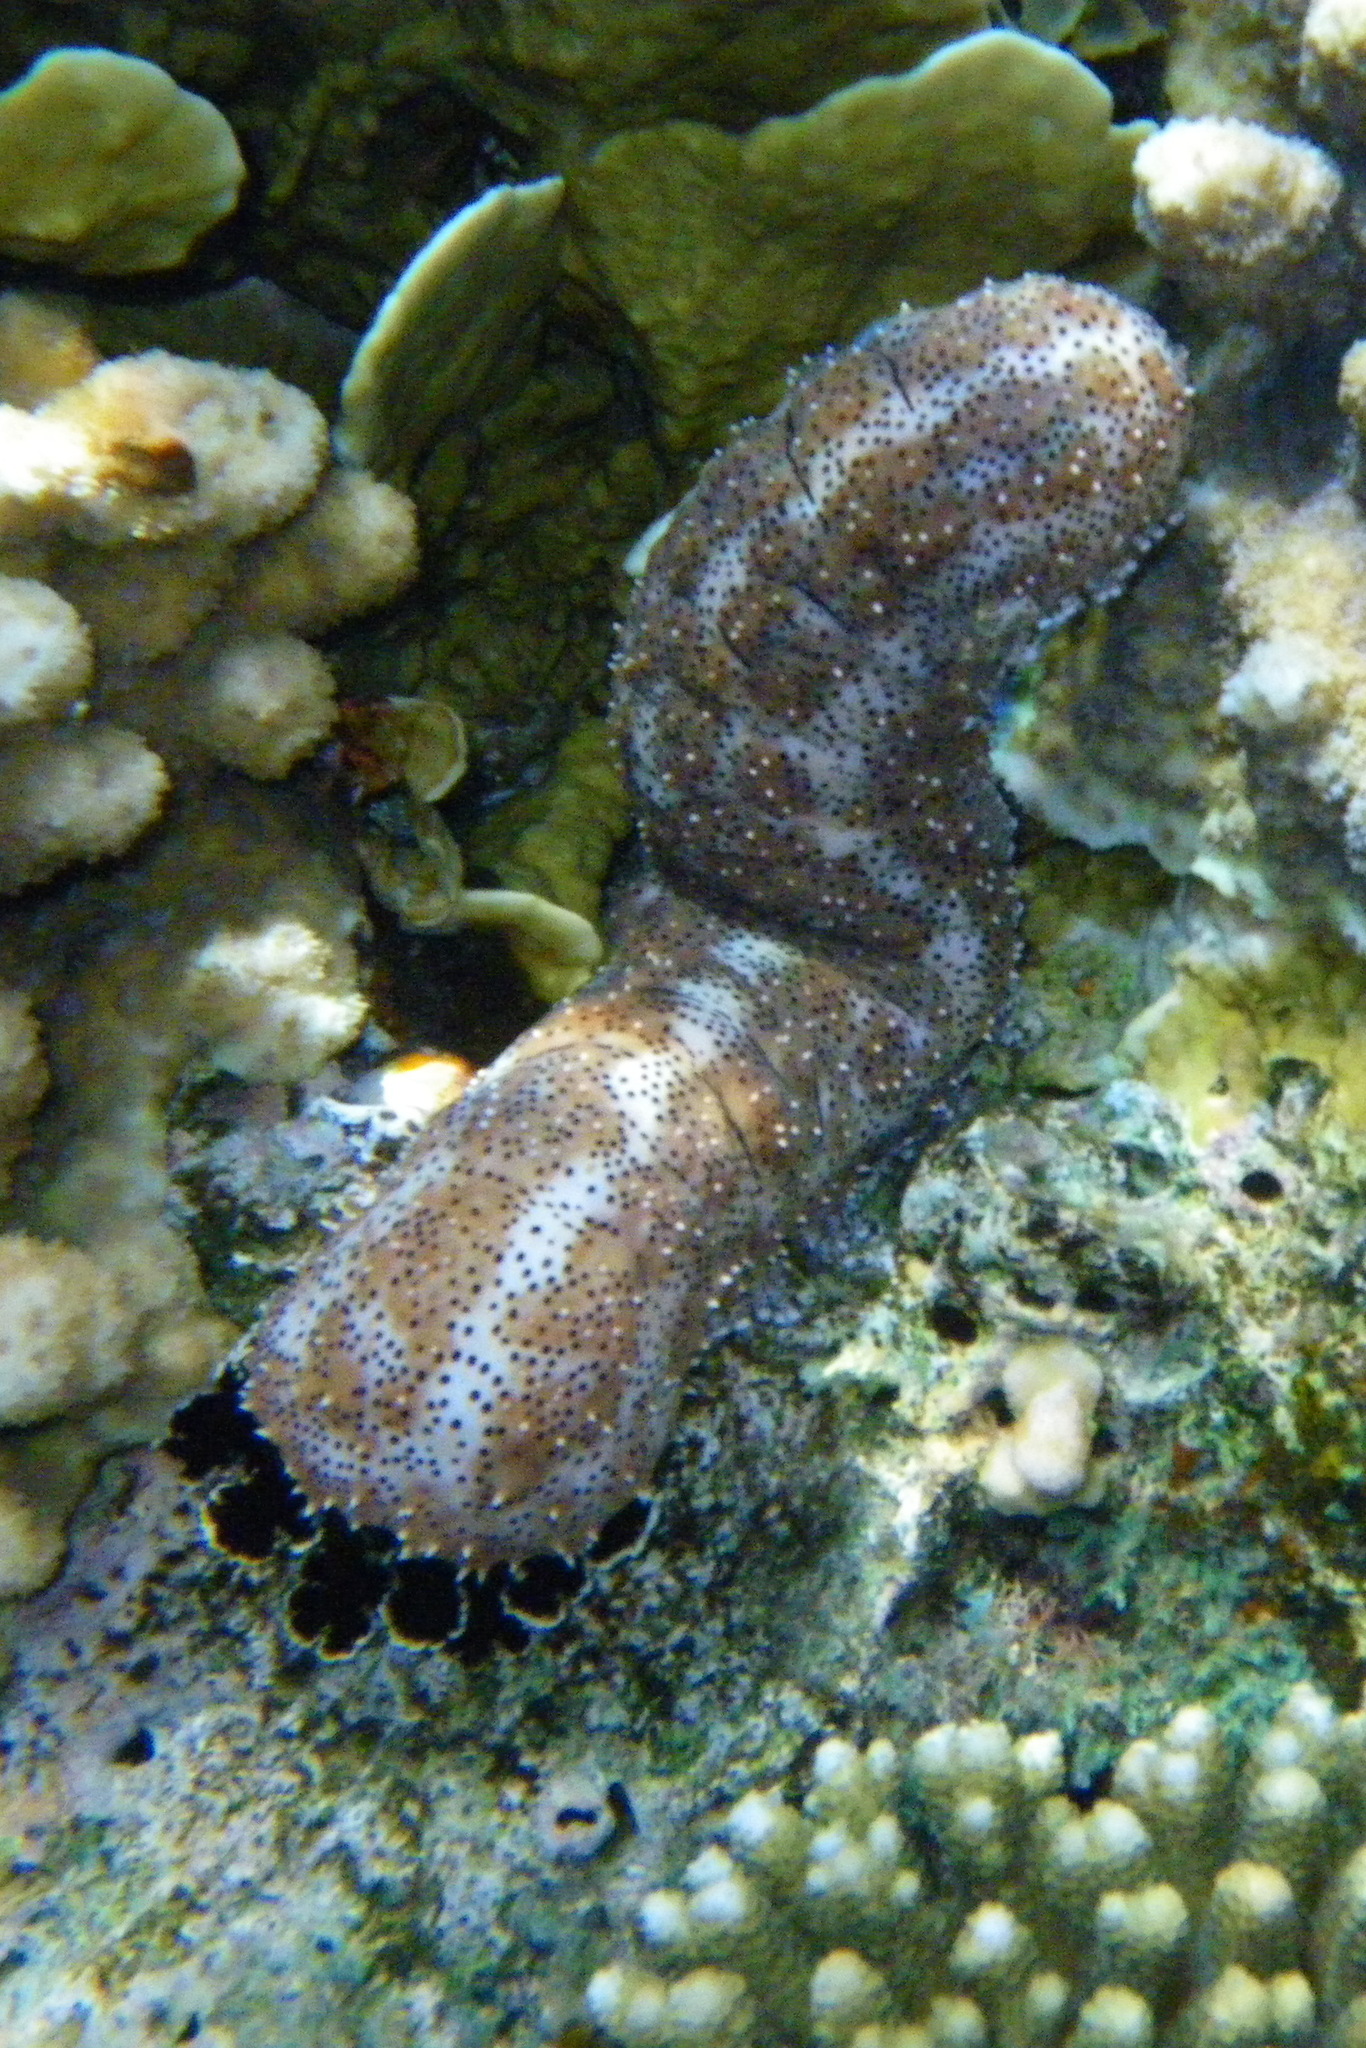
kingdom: Animalia
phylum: Echinodermata
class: Holothuroidea
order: Holothuriida
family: Holothuriidae
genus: Pearsonothuria
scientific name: Pearsonothuria graeffei
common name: Blackspotted sea cucumber
